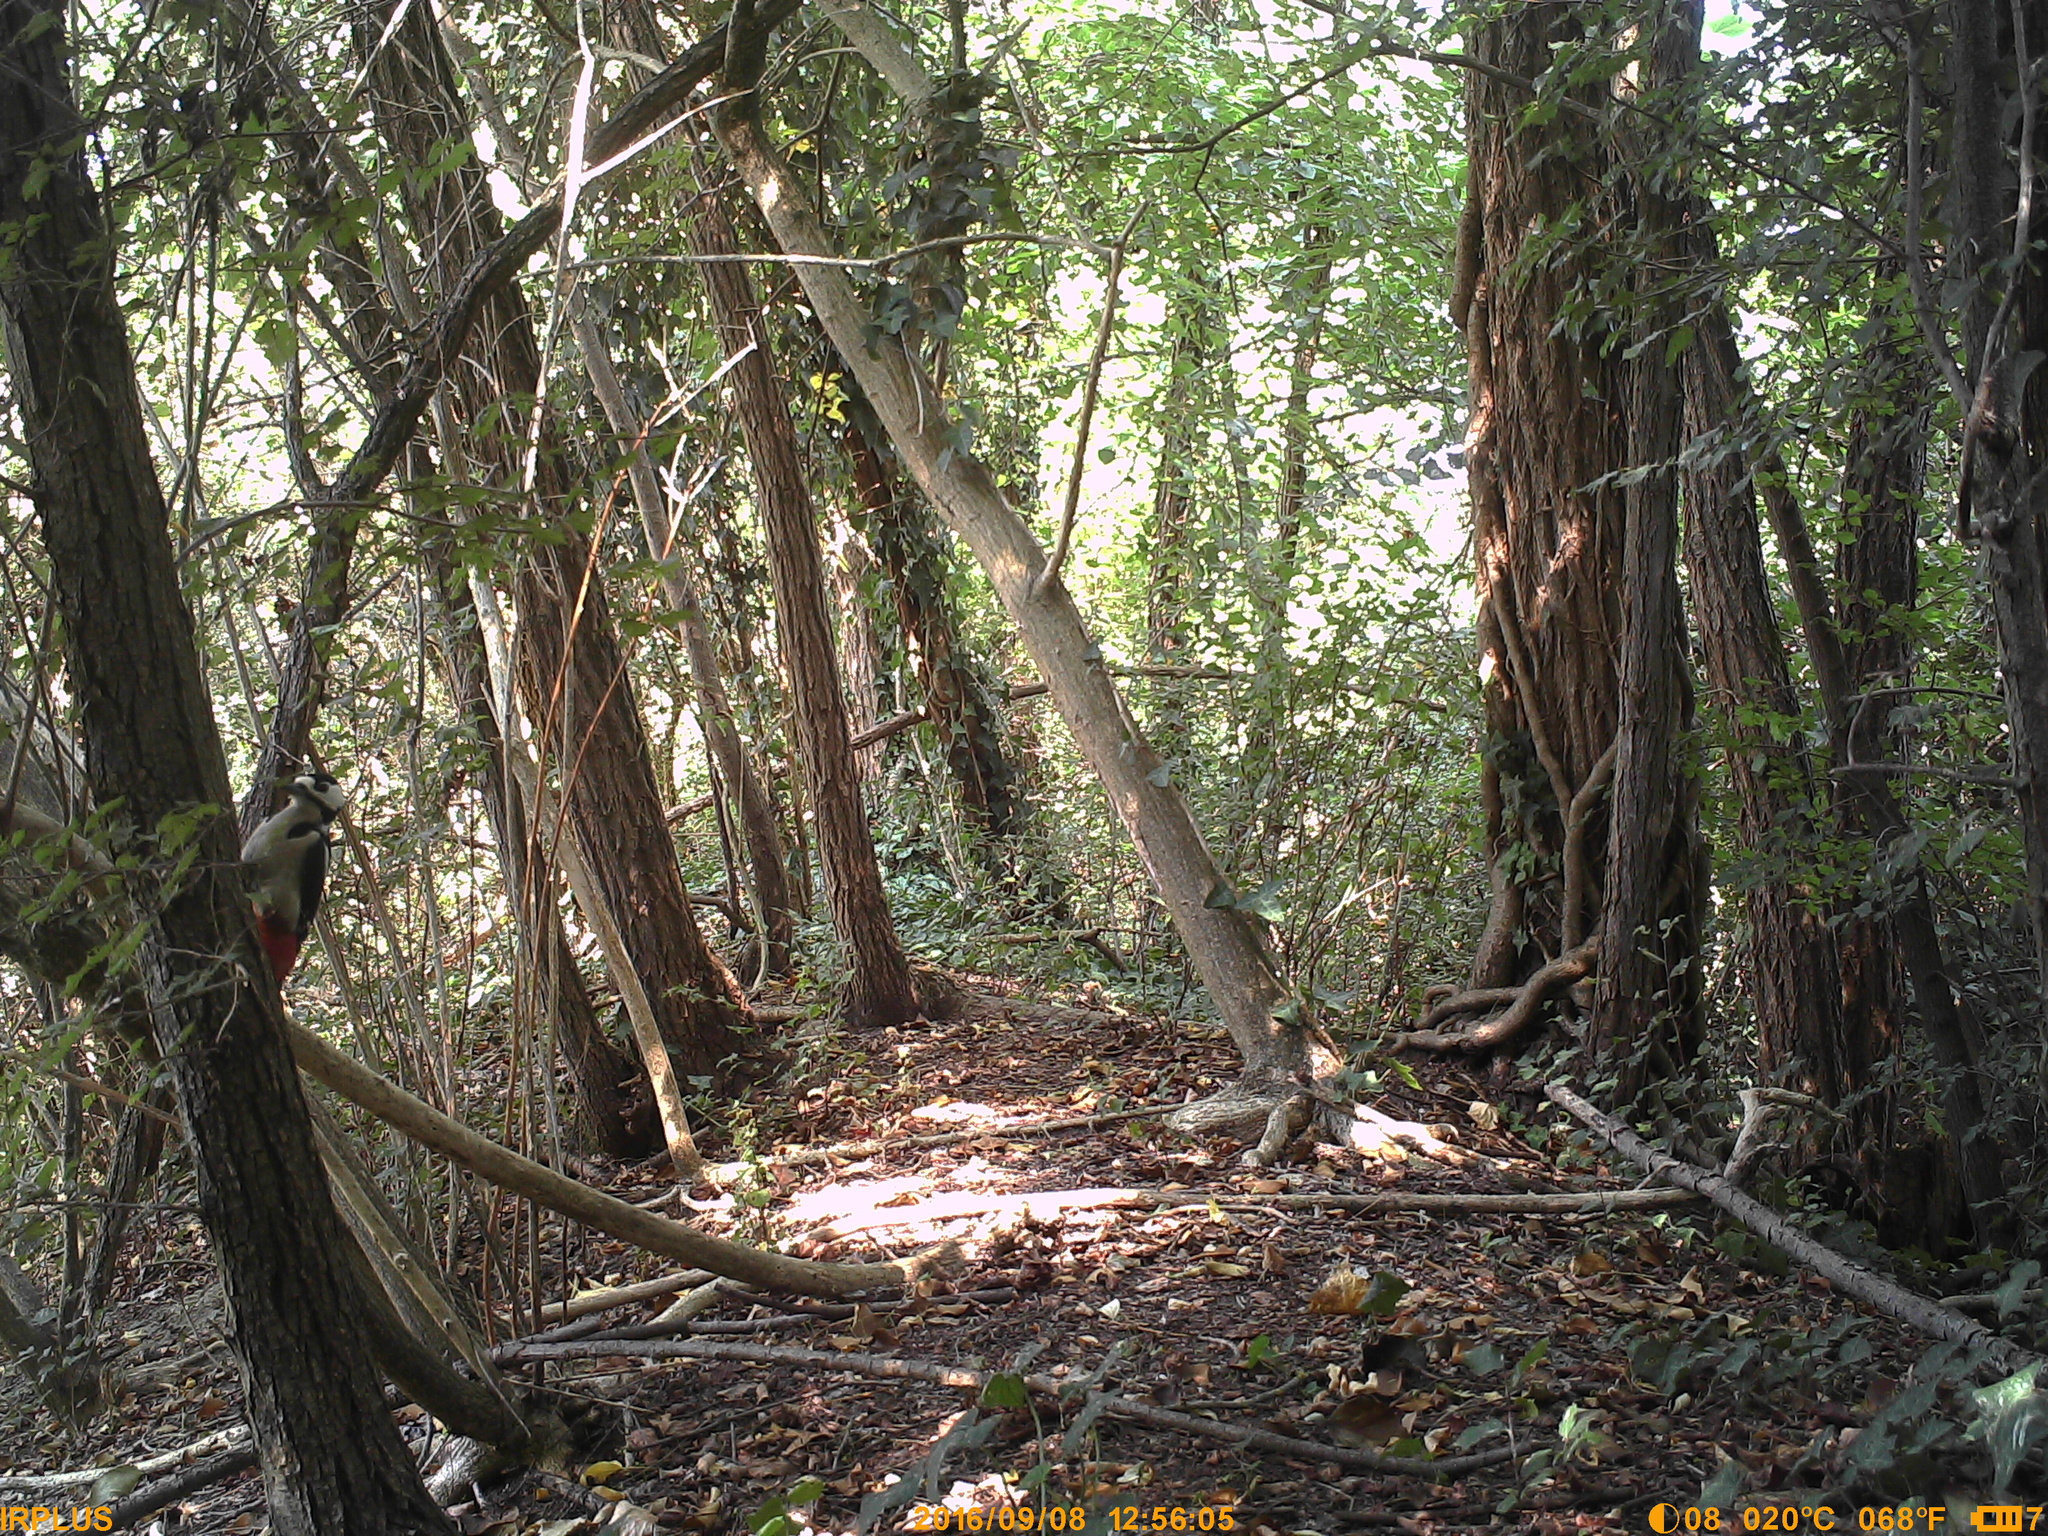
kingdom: Animalia
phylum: Chordata
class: Aves
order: Piciformes
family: Picidae
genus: Dendrocopos
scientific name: Dendrocopos major
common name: Great spotted woodpecker
